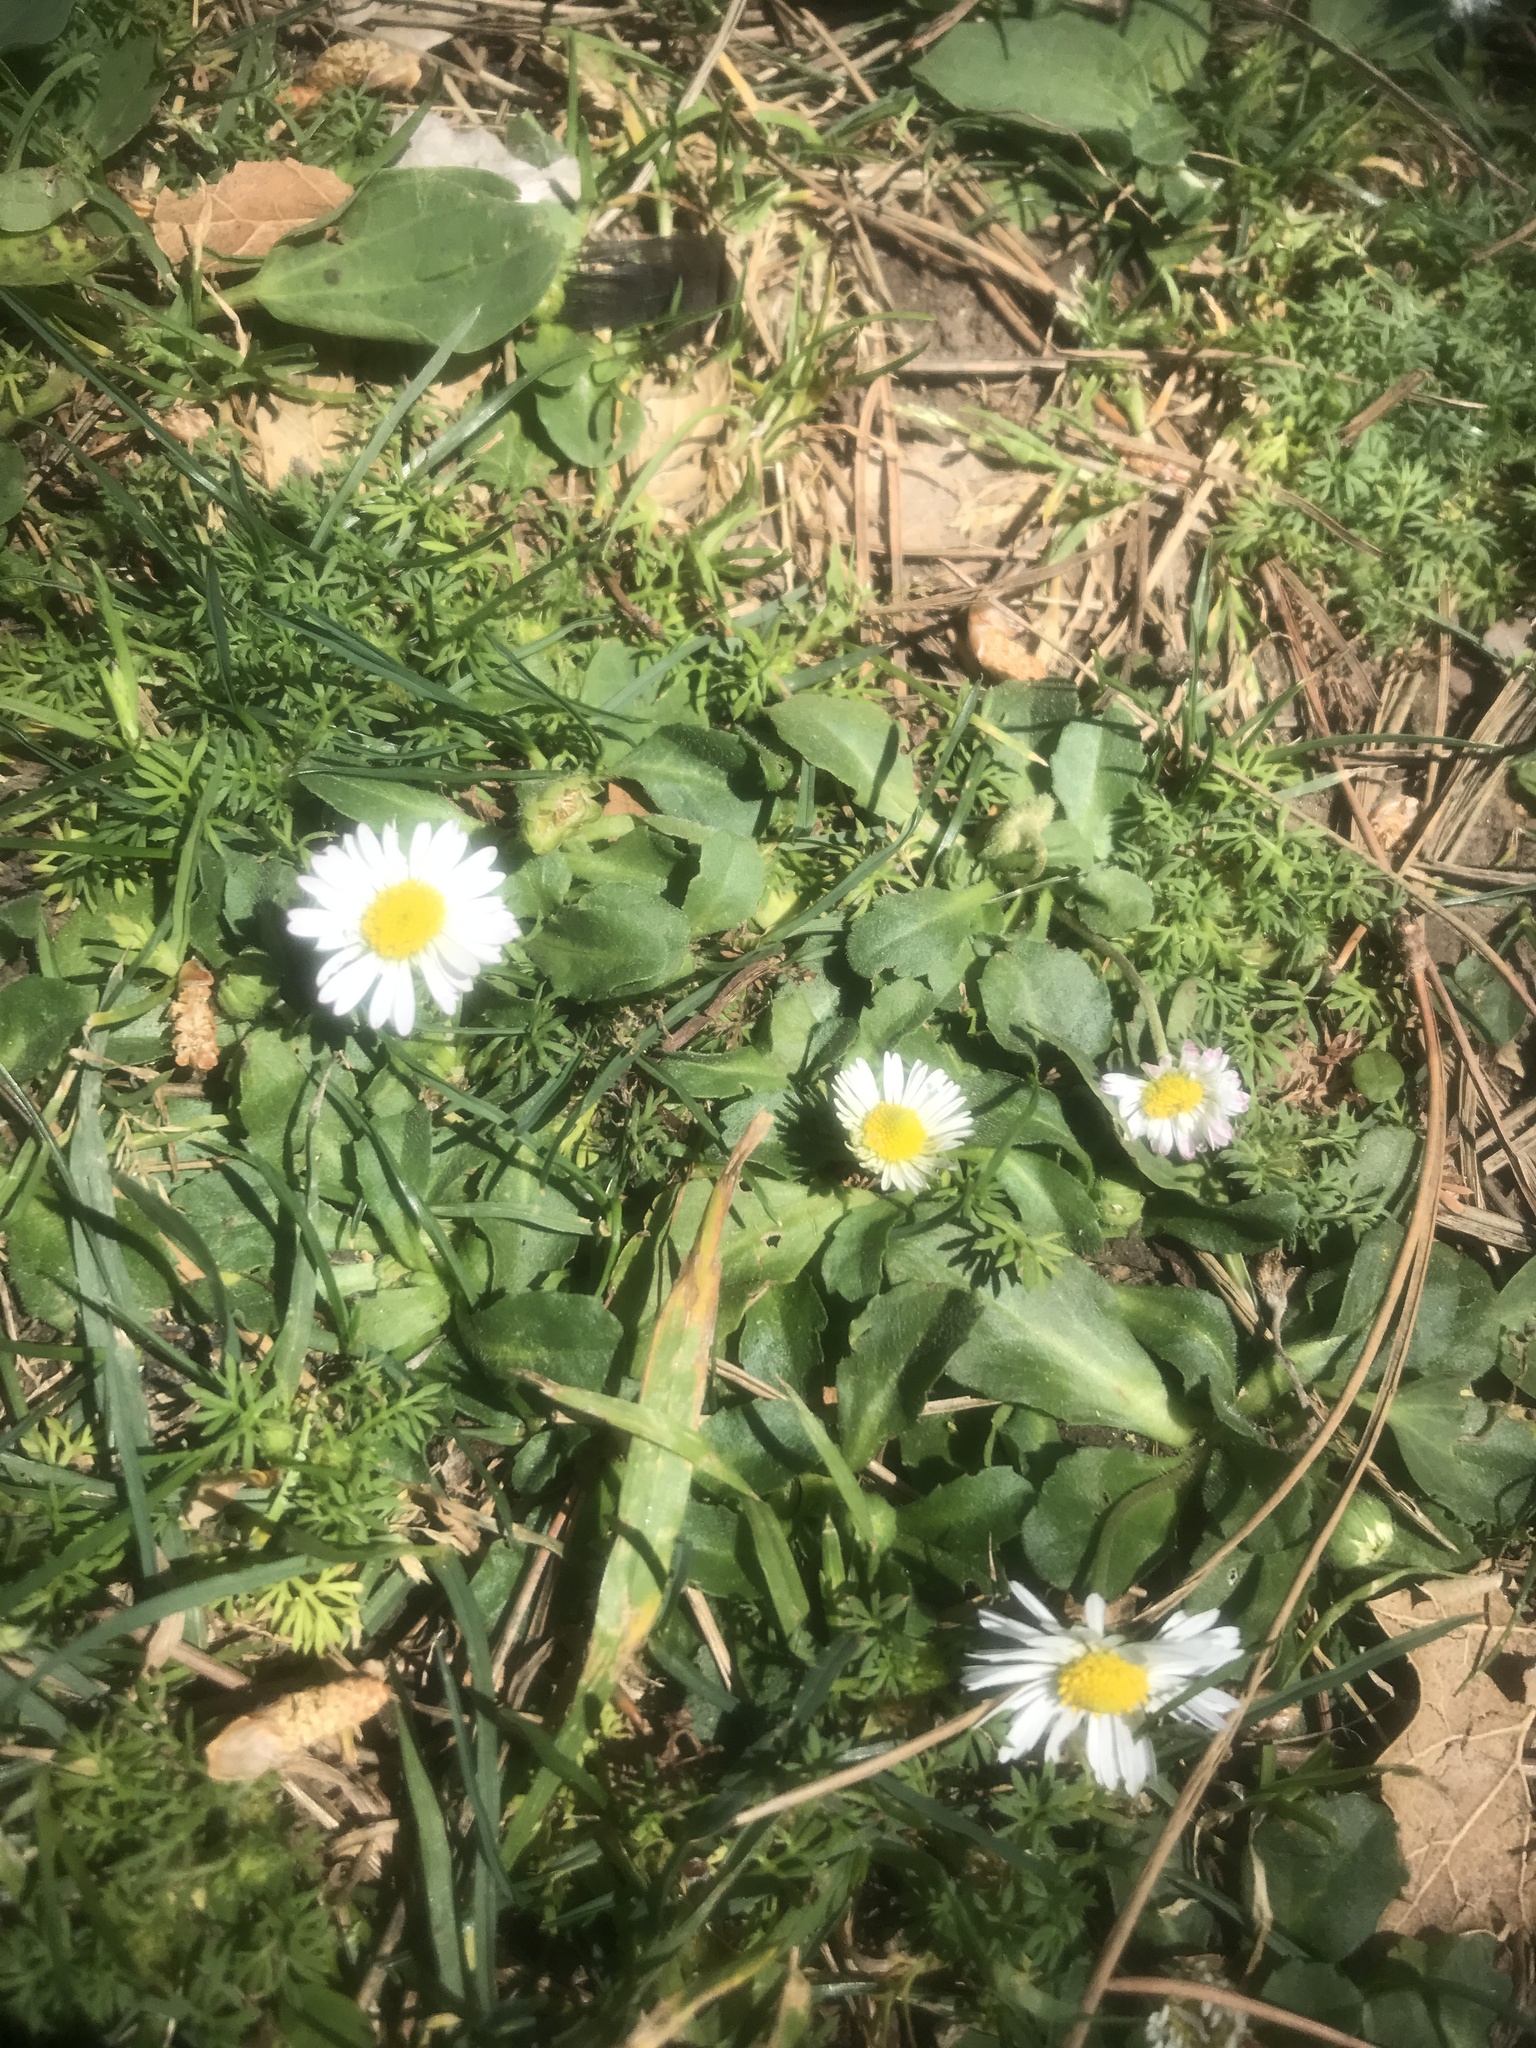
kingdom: Plantae
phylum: Tracheophyta
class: Magnoliopsida
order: Asterales
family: Asteraceae
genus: Bellis
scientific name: Bellis perennis
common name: Lawndaisy
